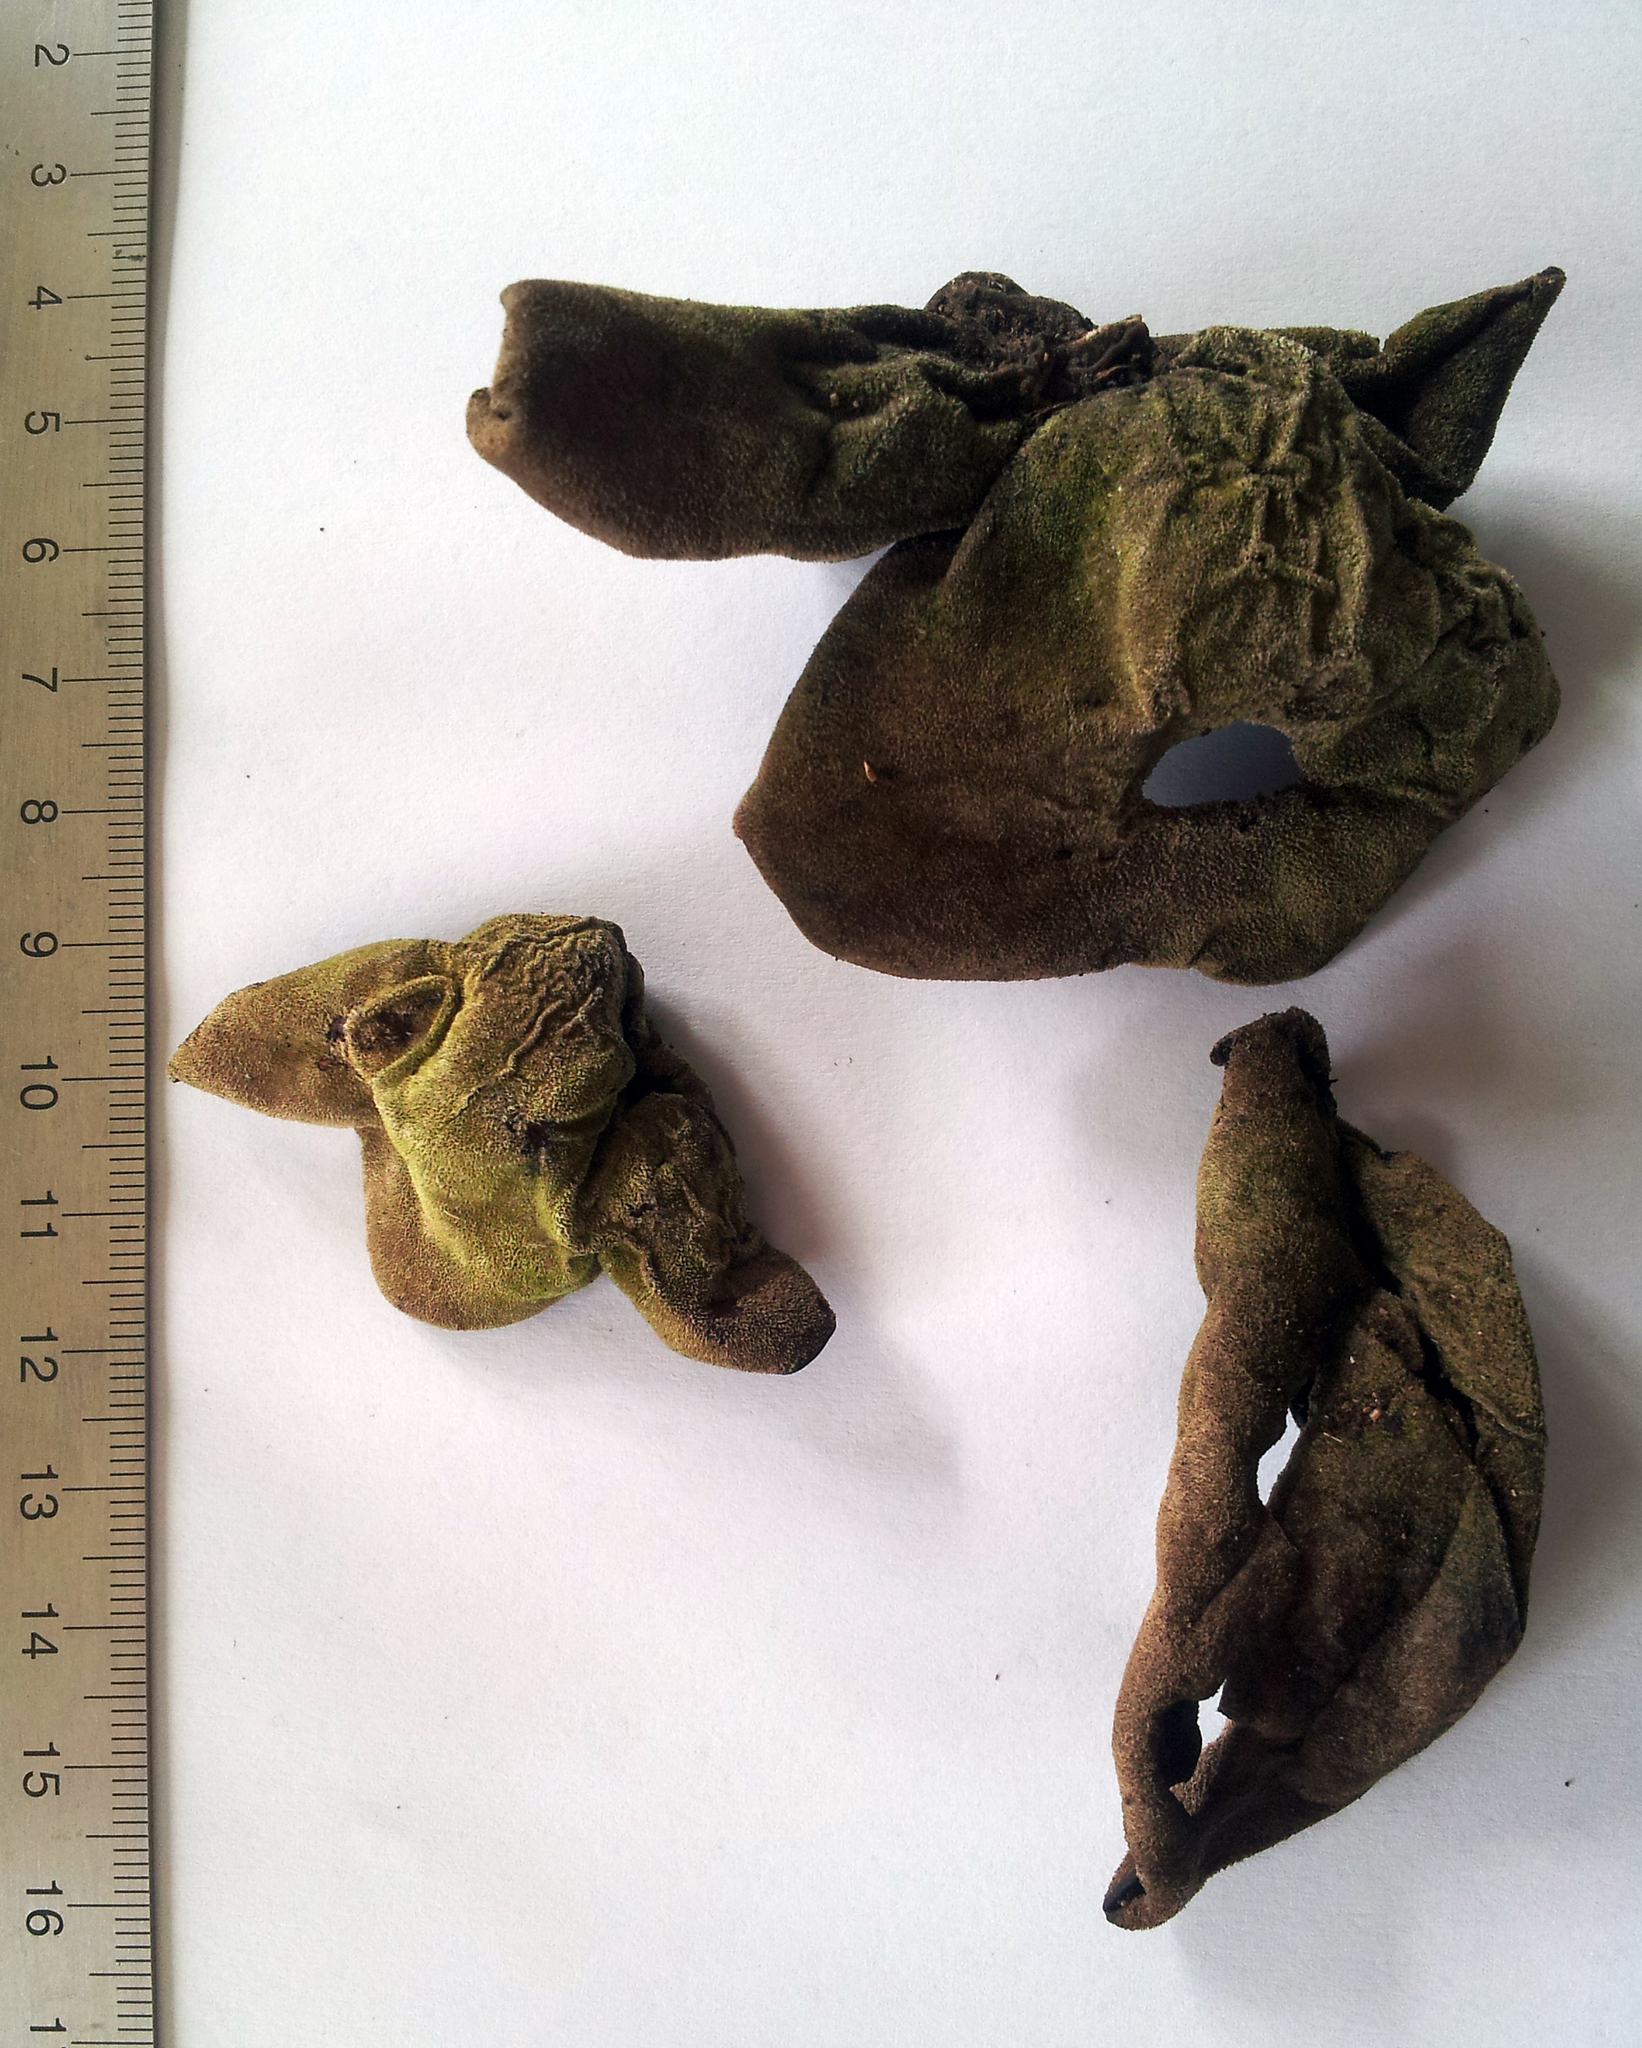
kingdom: Fungi
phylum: Basidiomycota
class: Agaricomycetes
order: Auriculariales
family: Auriculariaceae
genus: Auricularia
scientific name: Auricularia cornea
